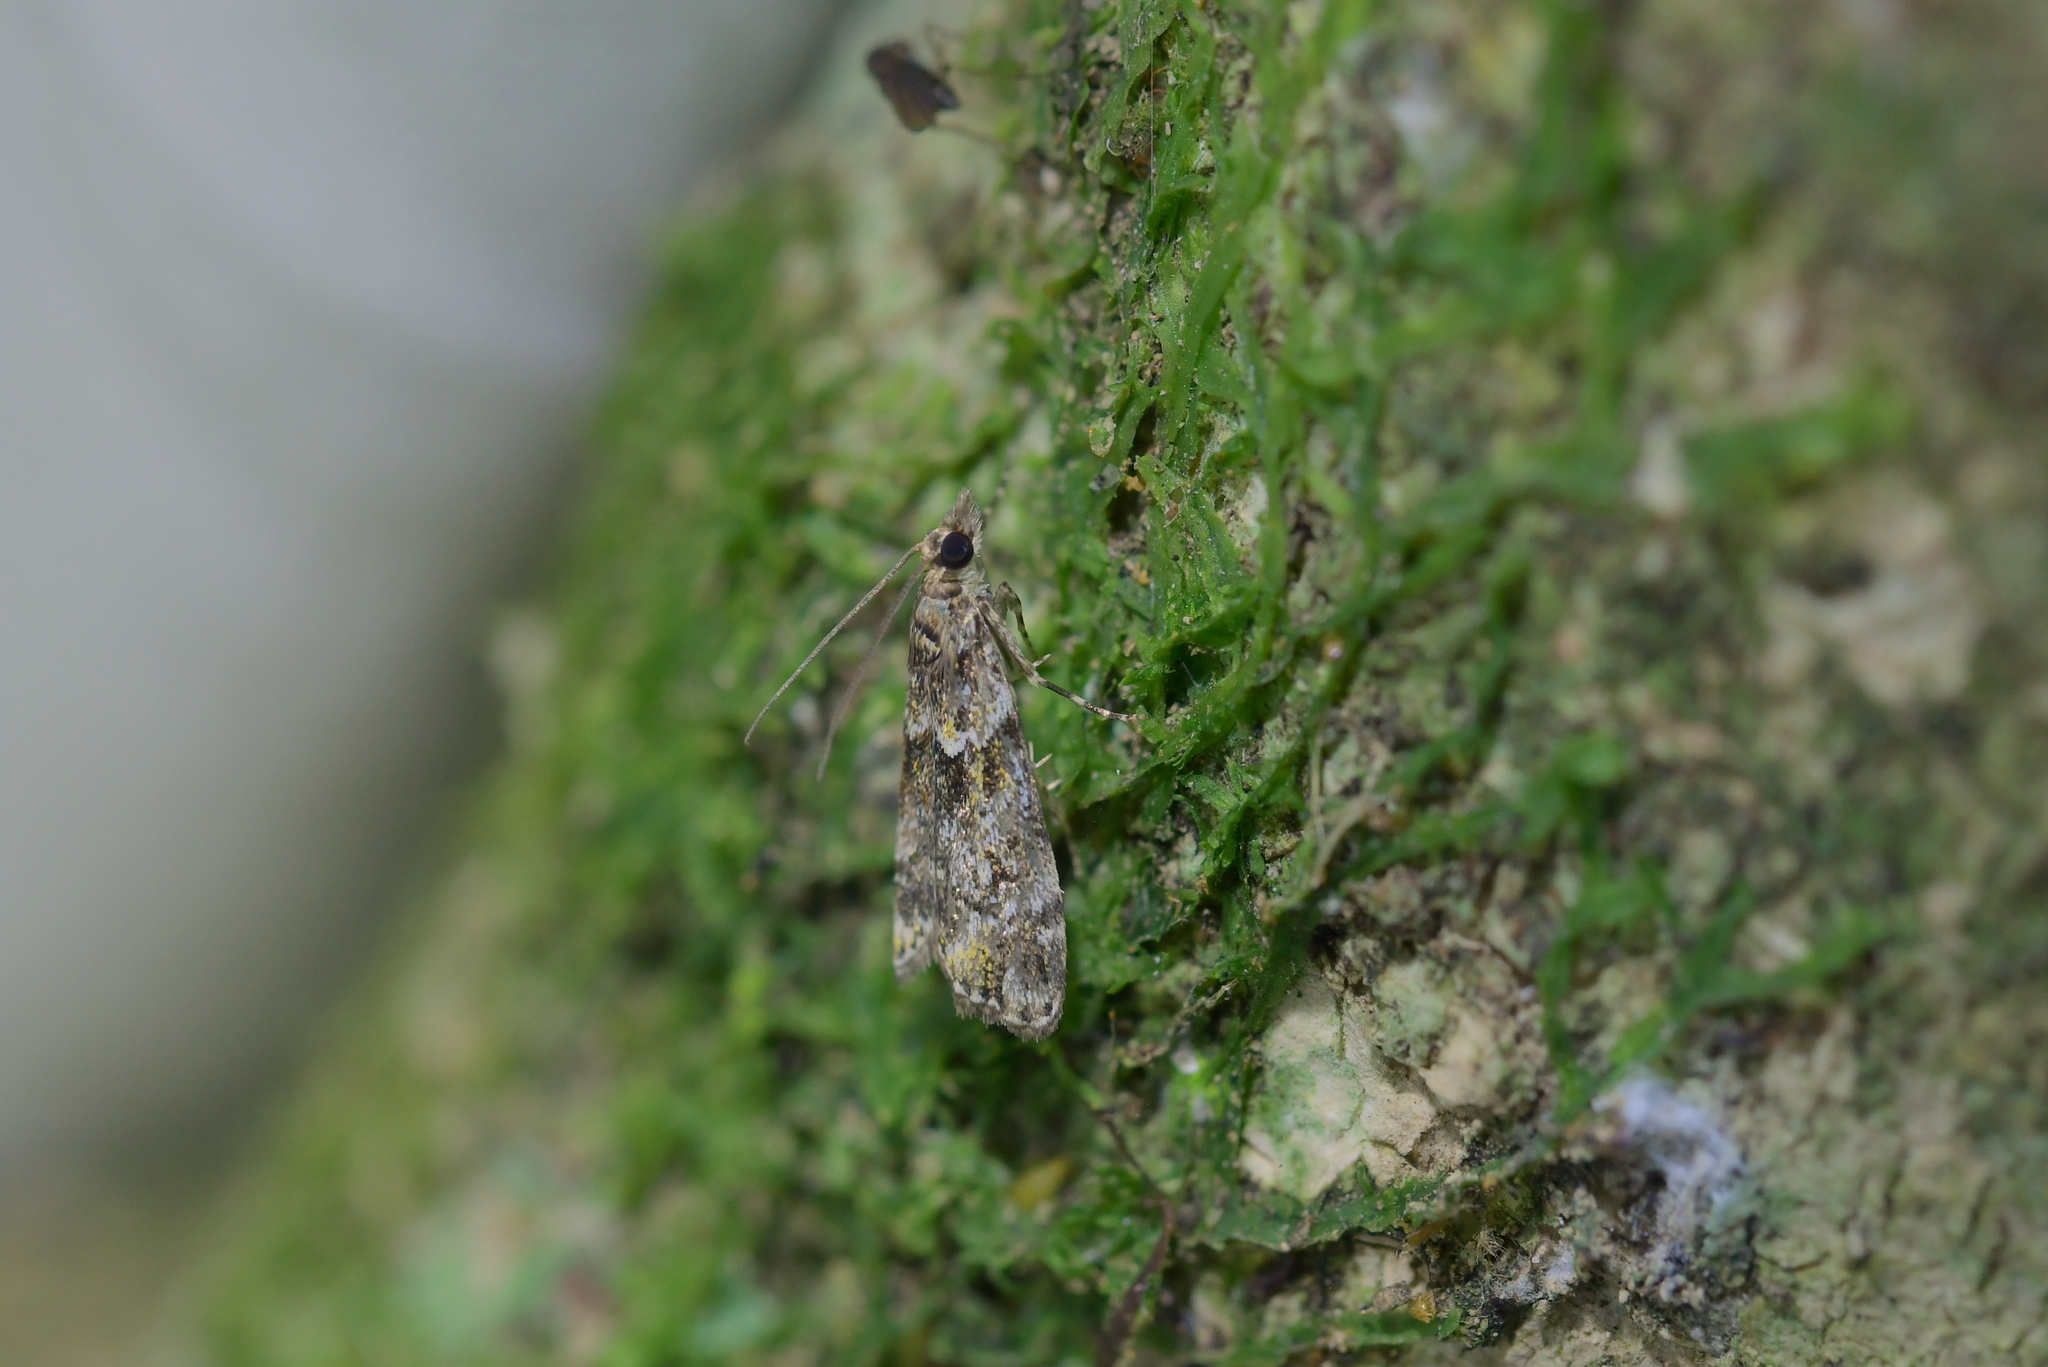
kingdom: Animalia
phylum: Arthropoda
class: Insecta
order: Lepidoptera
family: Crambidae
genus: Eudonia
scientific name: Eudonia minualis
